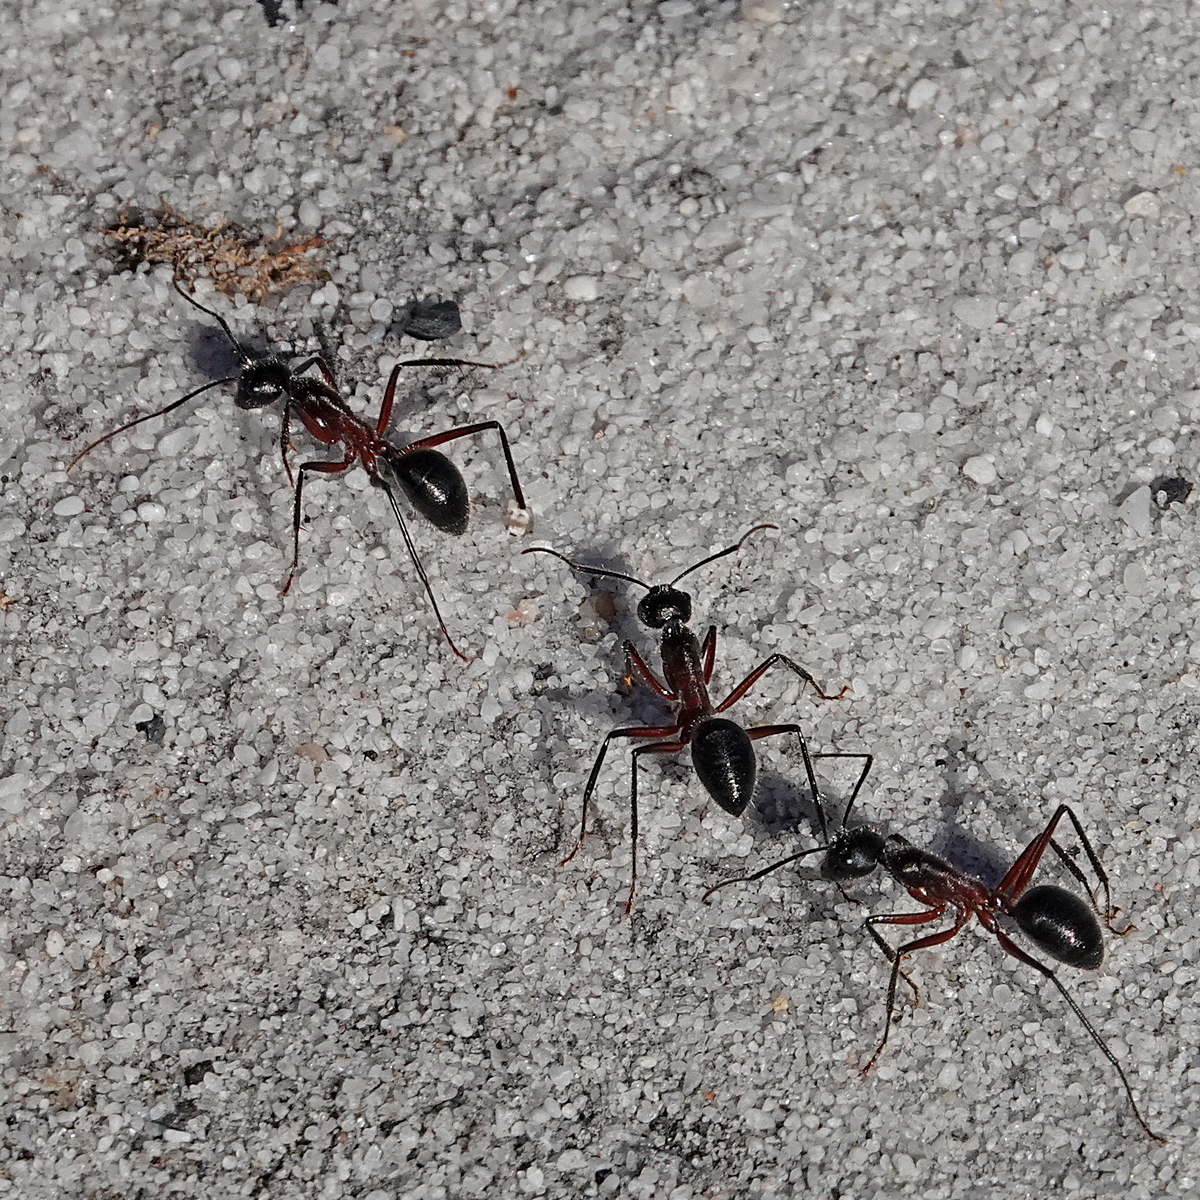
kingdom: Animalia
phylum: Arthropoda
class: Insecta
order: Hymenoptera
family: Formicidae
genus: Camponotus
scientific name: Camponotus intrepidus
